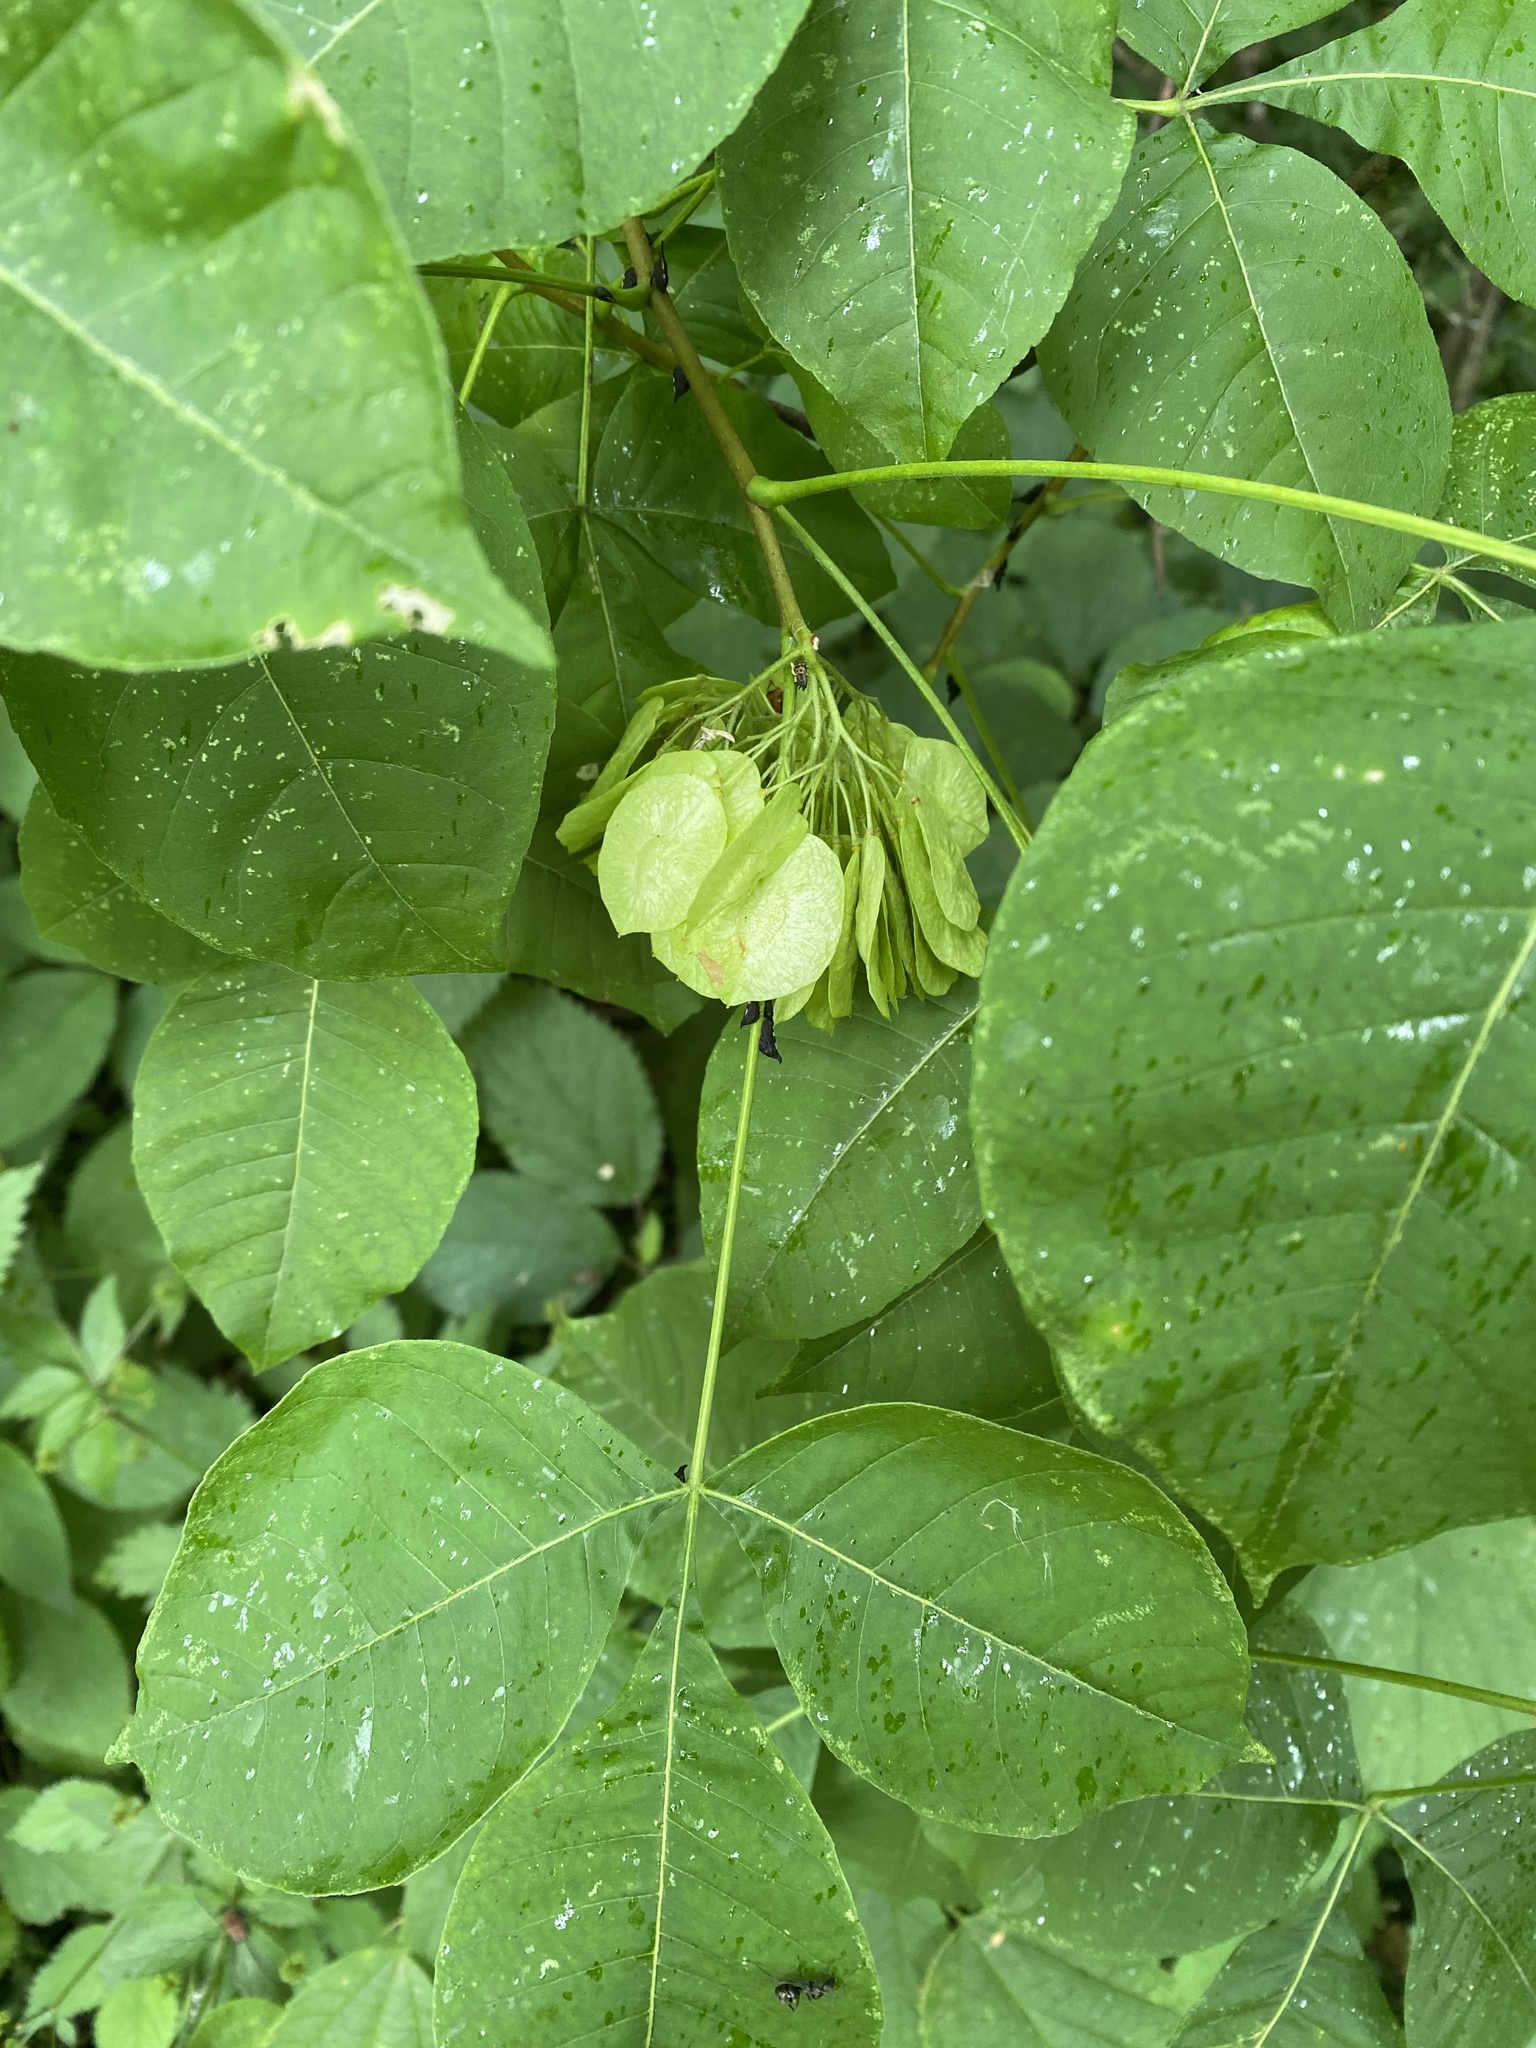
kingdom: Plantae
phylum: Tracheophyta
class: Magnoliopsida
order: Sapindales
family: Rutaceae
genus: Ptelea
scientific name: Ptelea trifoliata
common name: Common hop-tree
